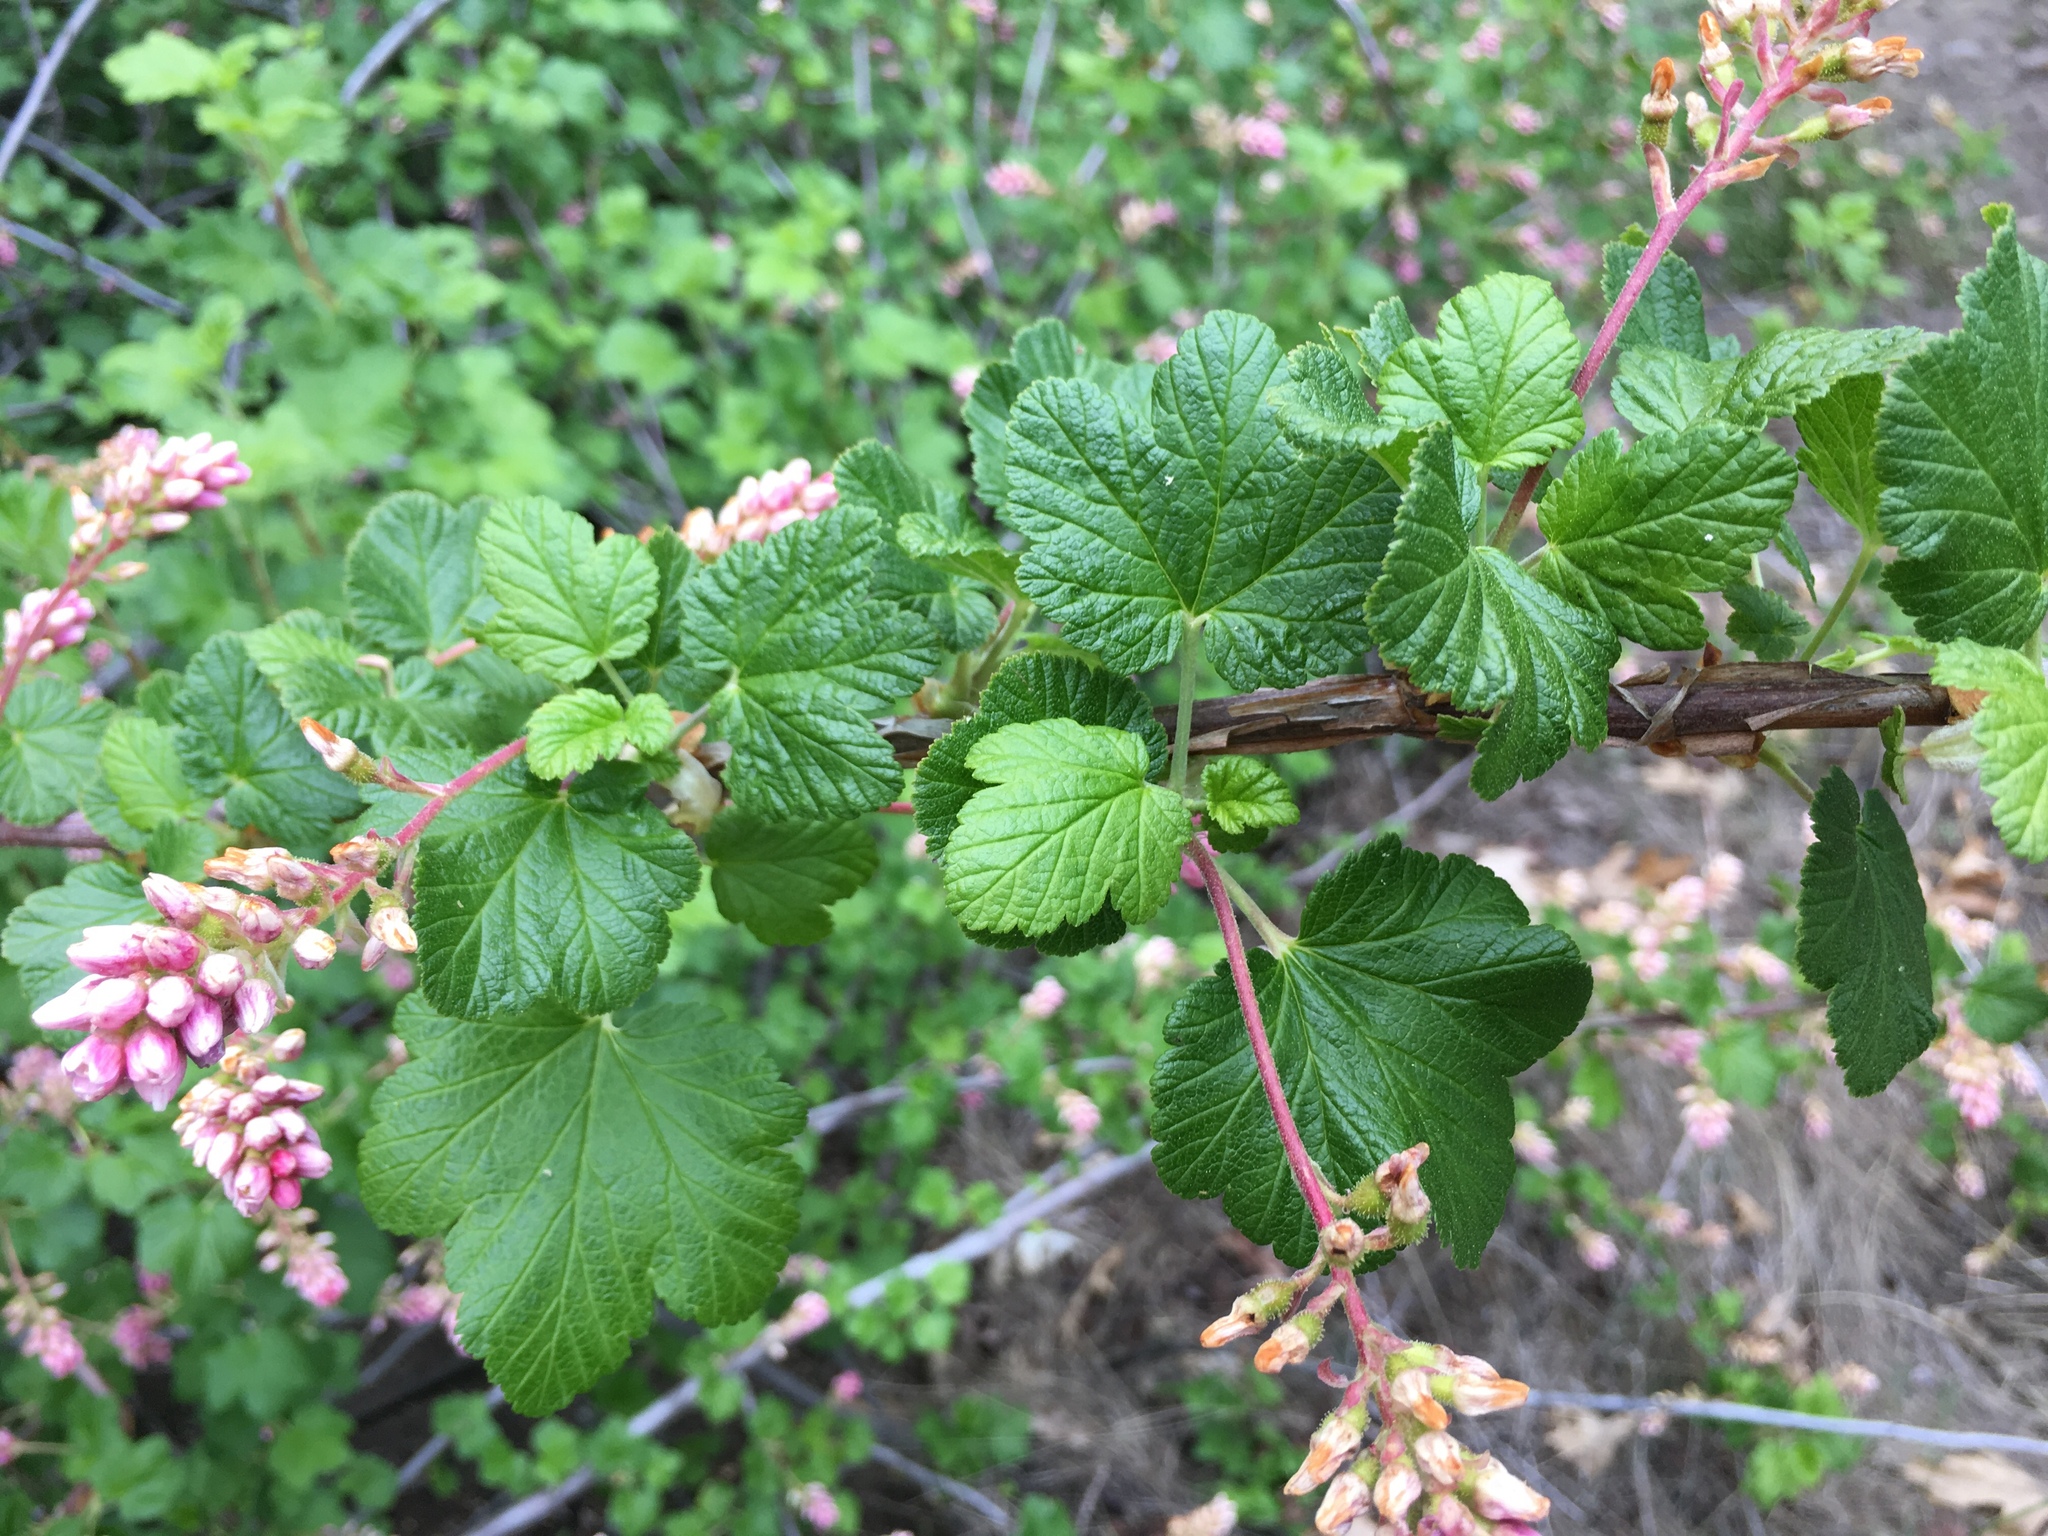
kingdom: Plantae
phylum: Tracheophyta
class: Magnoliopsida
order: Saxifragales
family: Grossulariaceae
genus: Ribes
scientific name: Ribes nevadense
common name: Mountain pink currant
